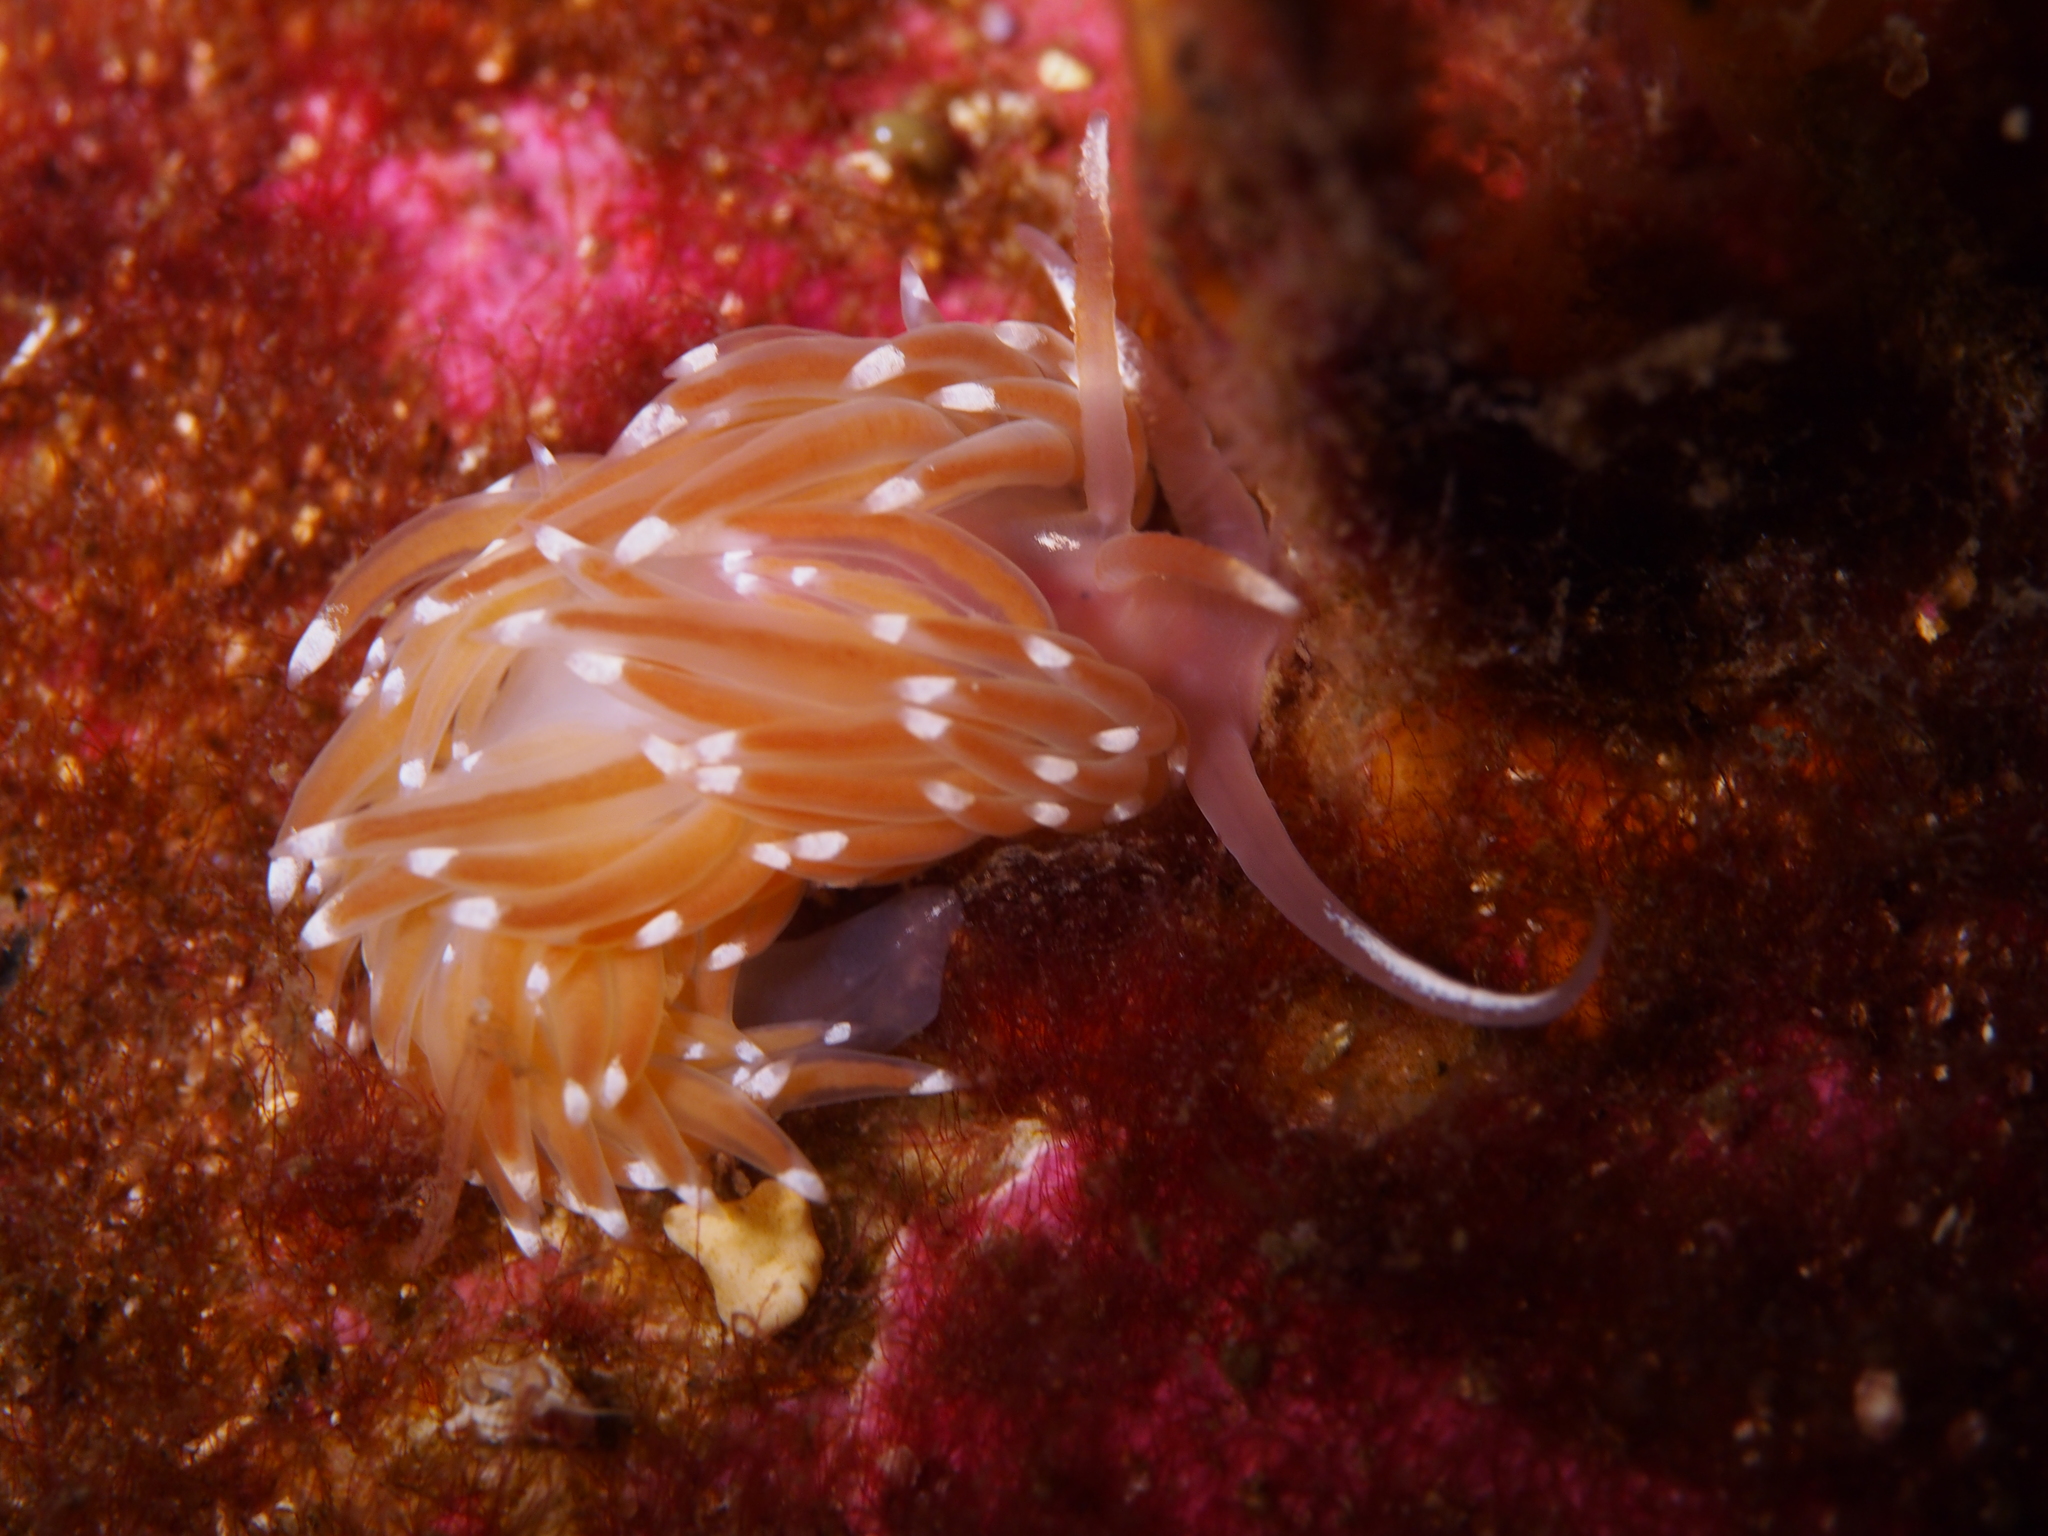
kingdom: Animalia
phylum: Mollusca
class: Gastropoda
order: Nudibranchia
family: Facelinidae
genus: Facelina
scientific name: Facelina bostoniensis
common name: Boston facelina
